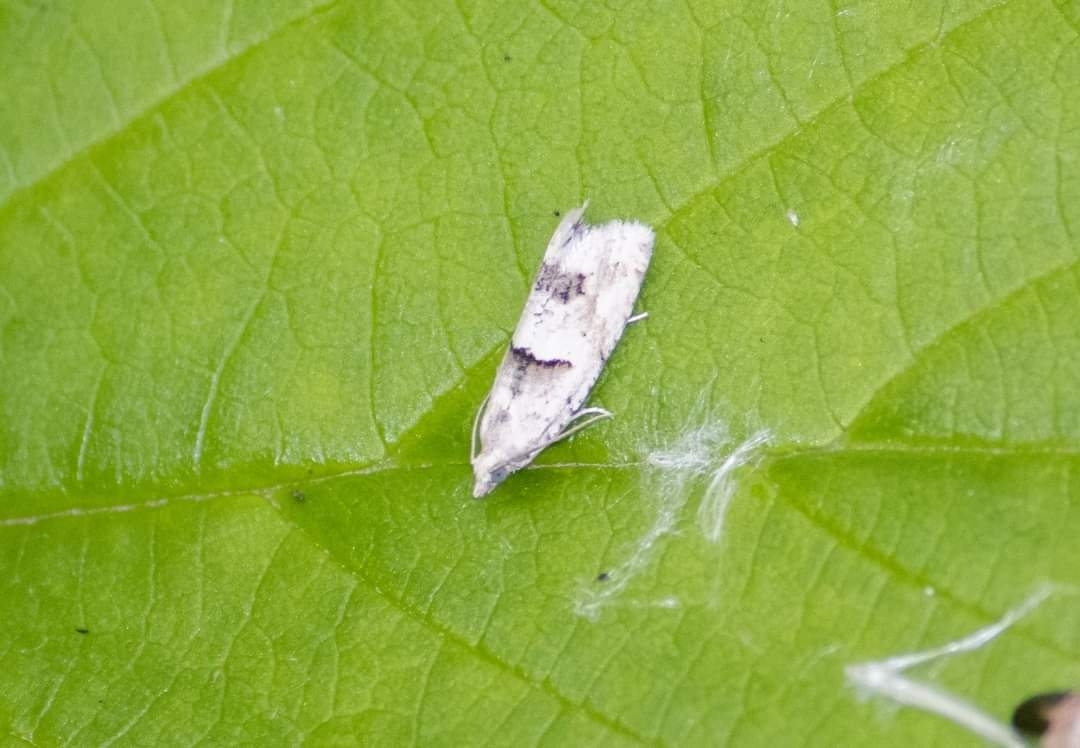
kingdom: Animalia
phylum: Arthropoda
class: Insecta
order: Lepidoptera
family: Tortricidae
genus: Epinotia
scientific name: Epinotia bilunana
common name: Crescent bell
